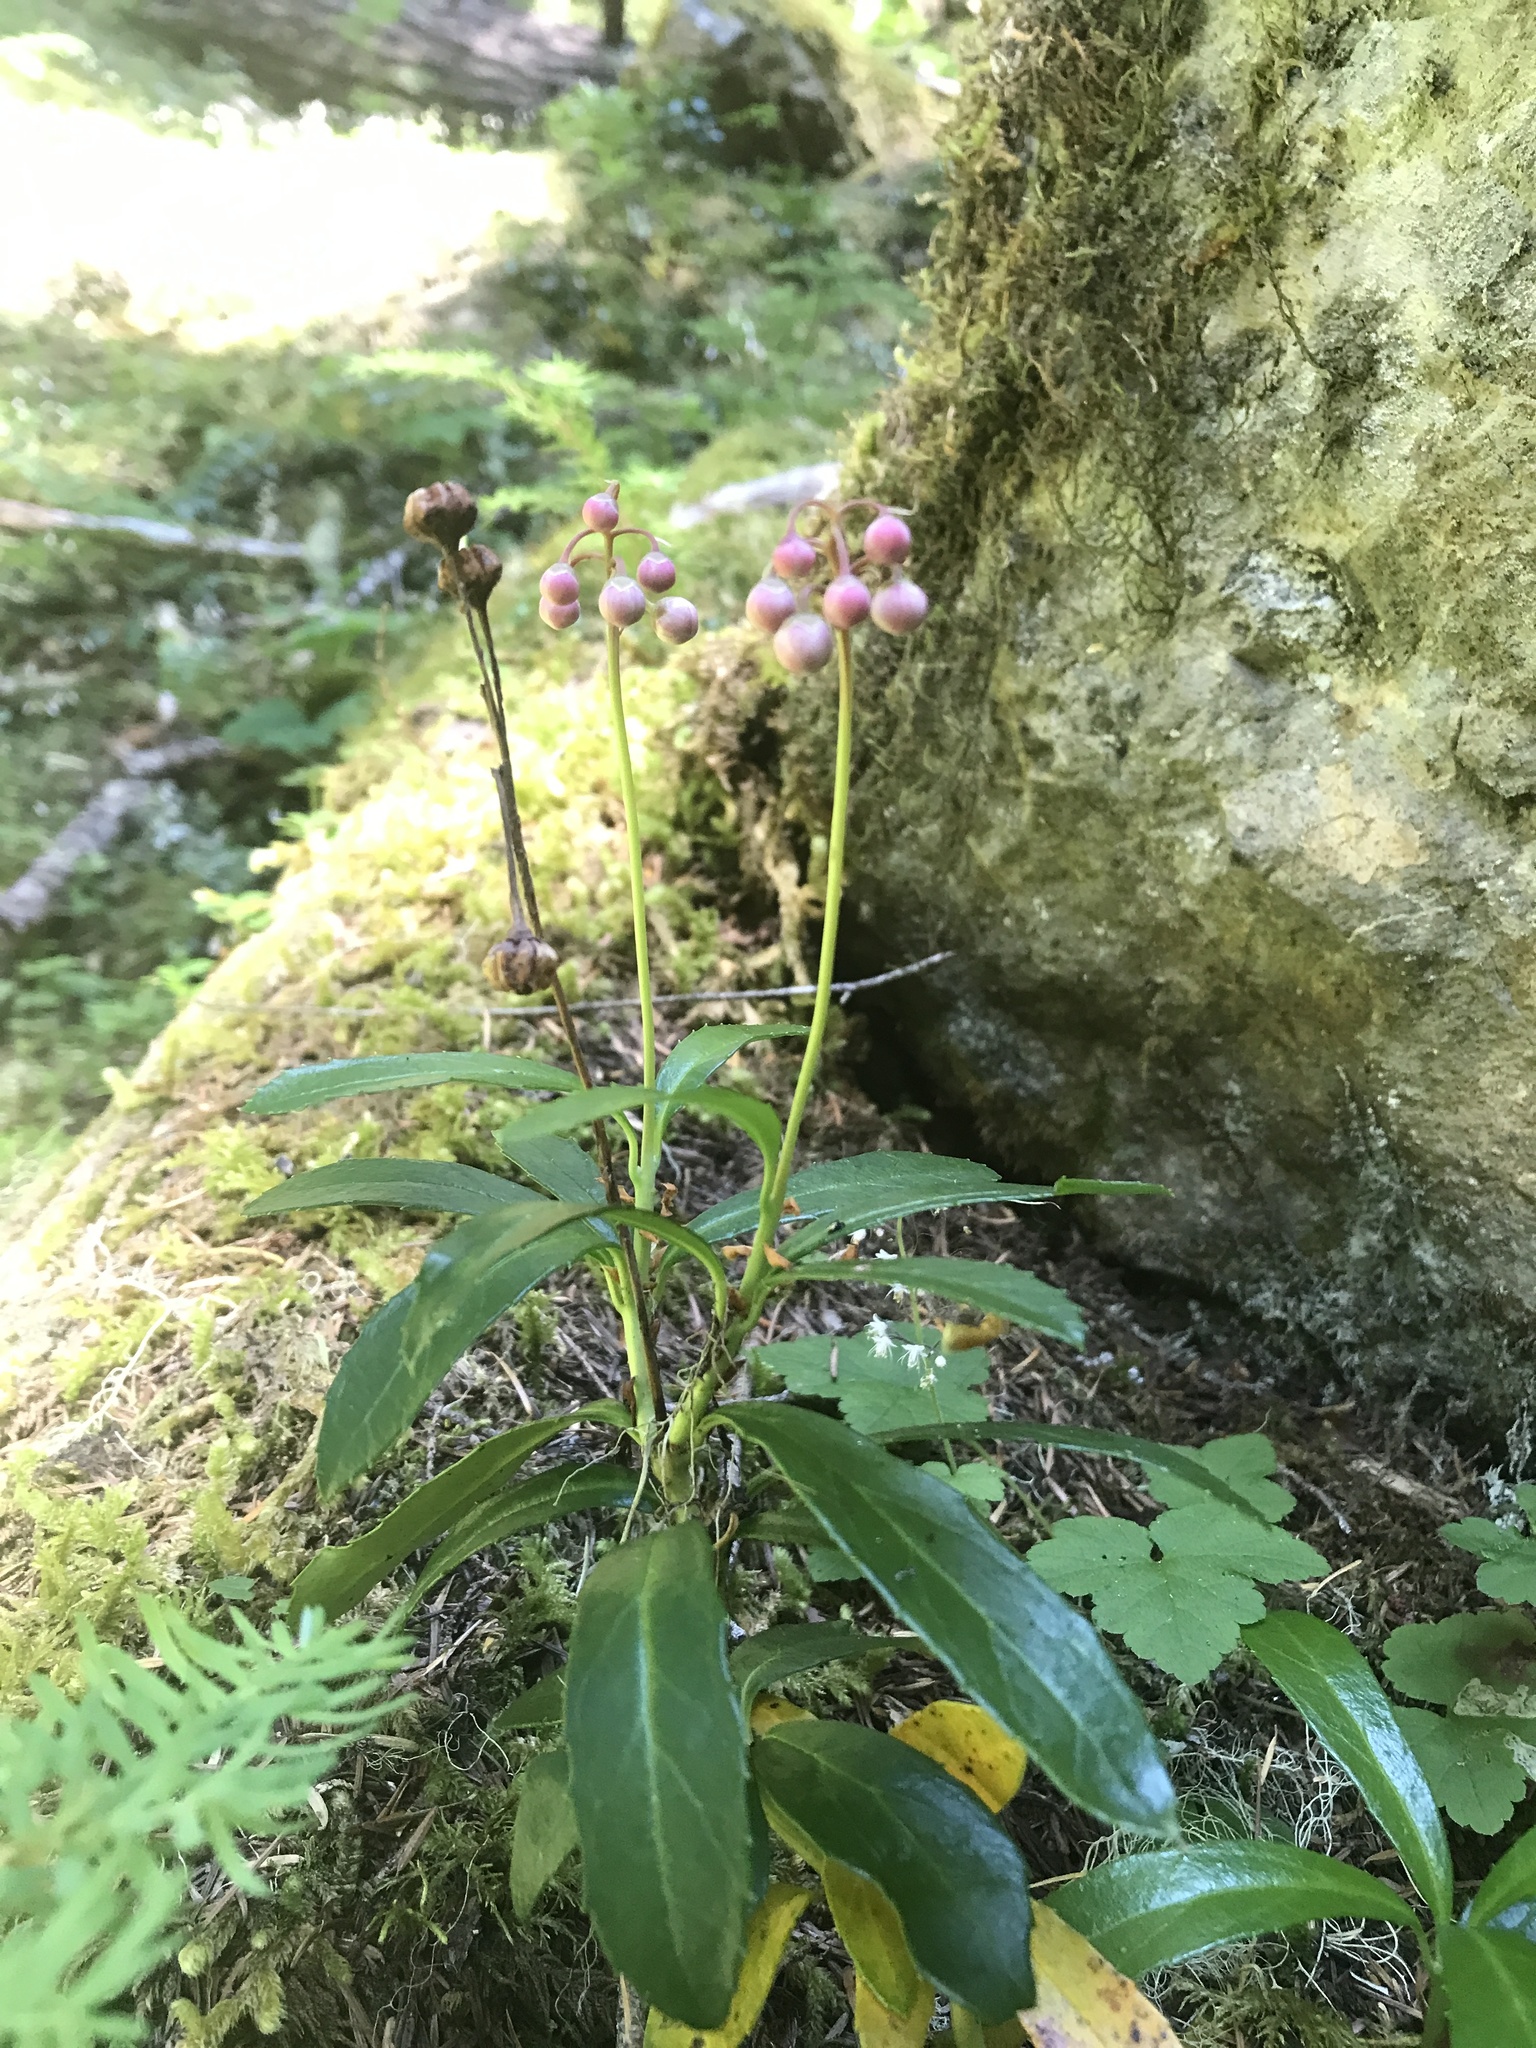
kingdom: Plantae
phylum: Tracheophyta
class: Magnoliopsida
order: Ericales
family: Ericaceae
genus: Chimaphila
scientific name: Chimaphila umbellata
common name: Pipsissewa
